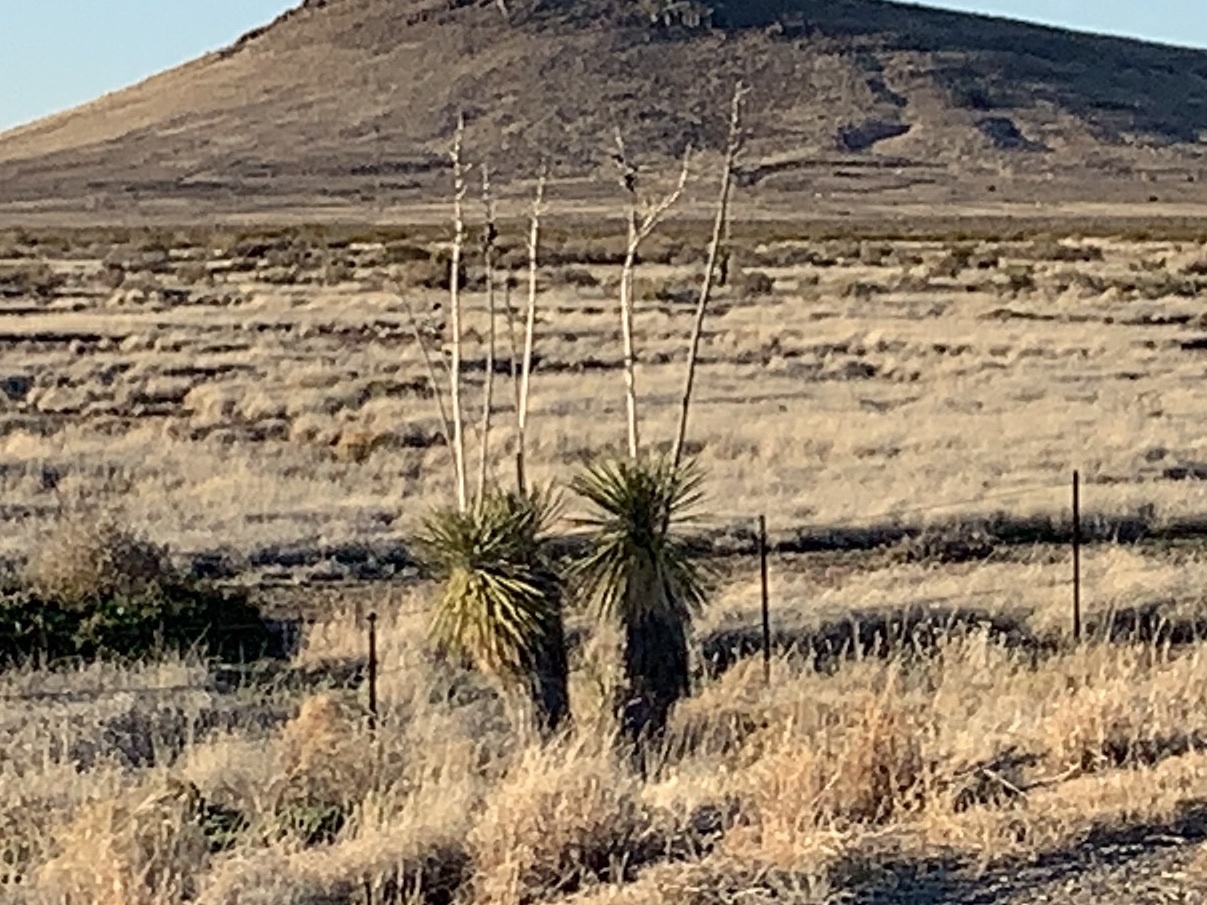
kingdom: Plantae
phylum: Tracheophyta
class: Liliopsida
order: Asparagales
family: Asparagaceae
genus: Yucca
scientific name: Yucca elata
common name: Palmella
